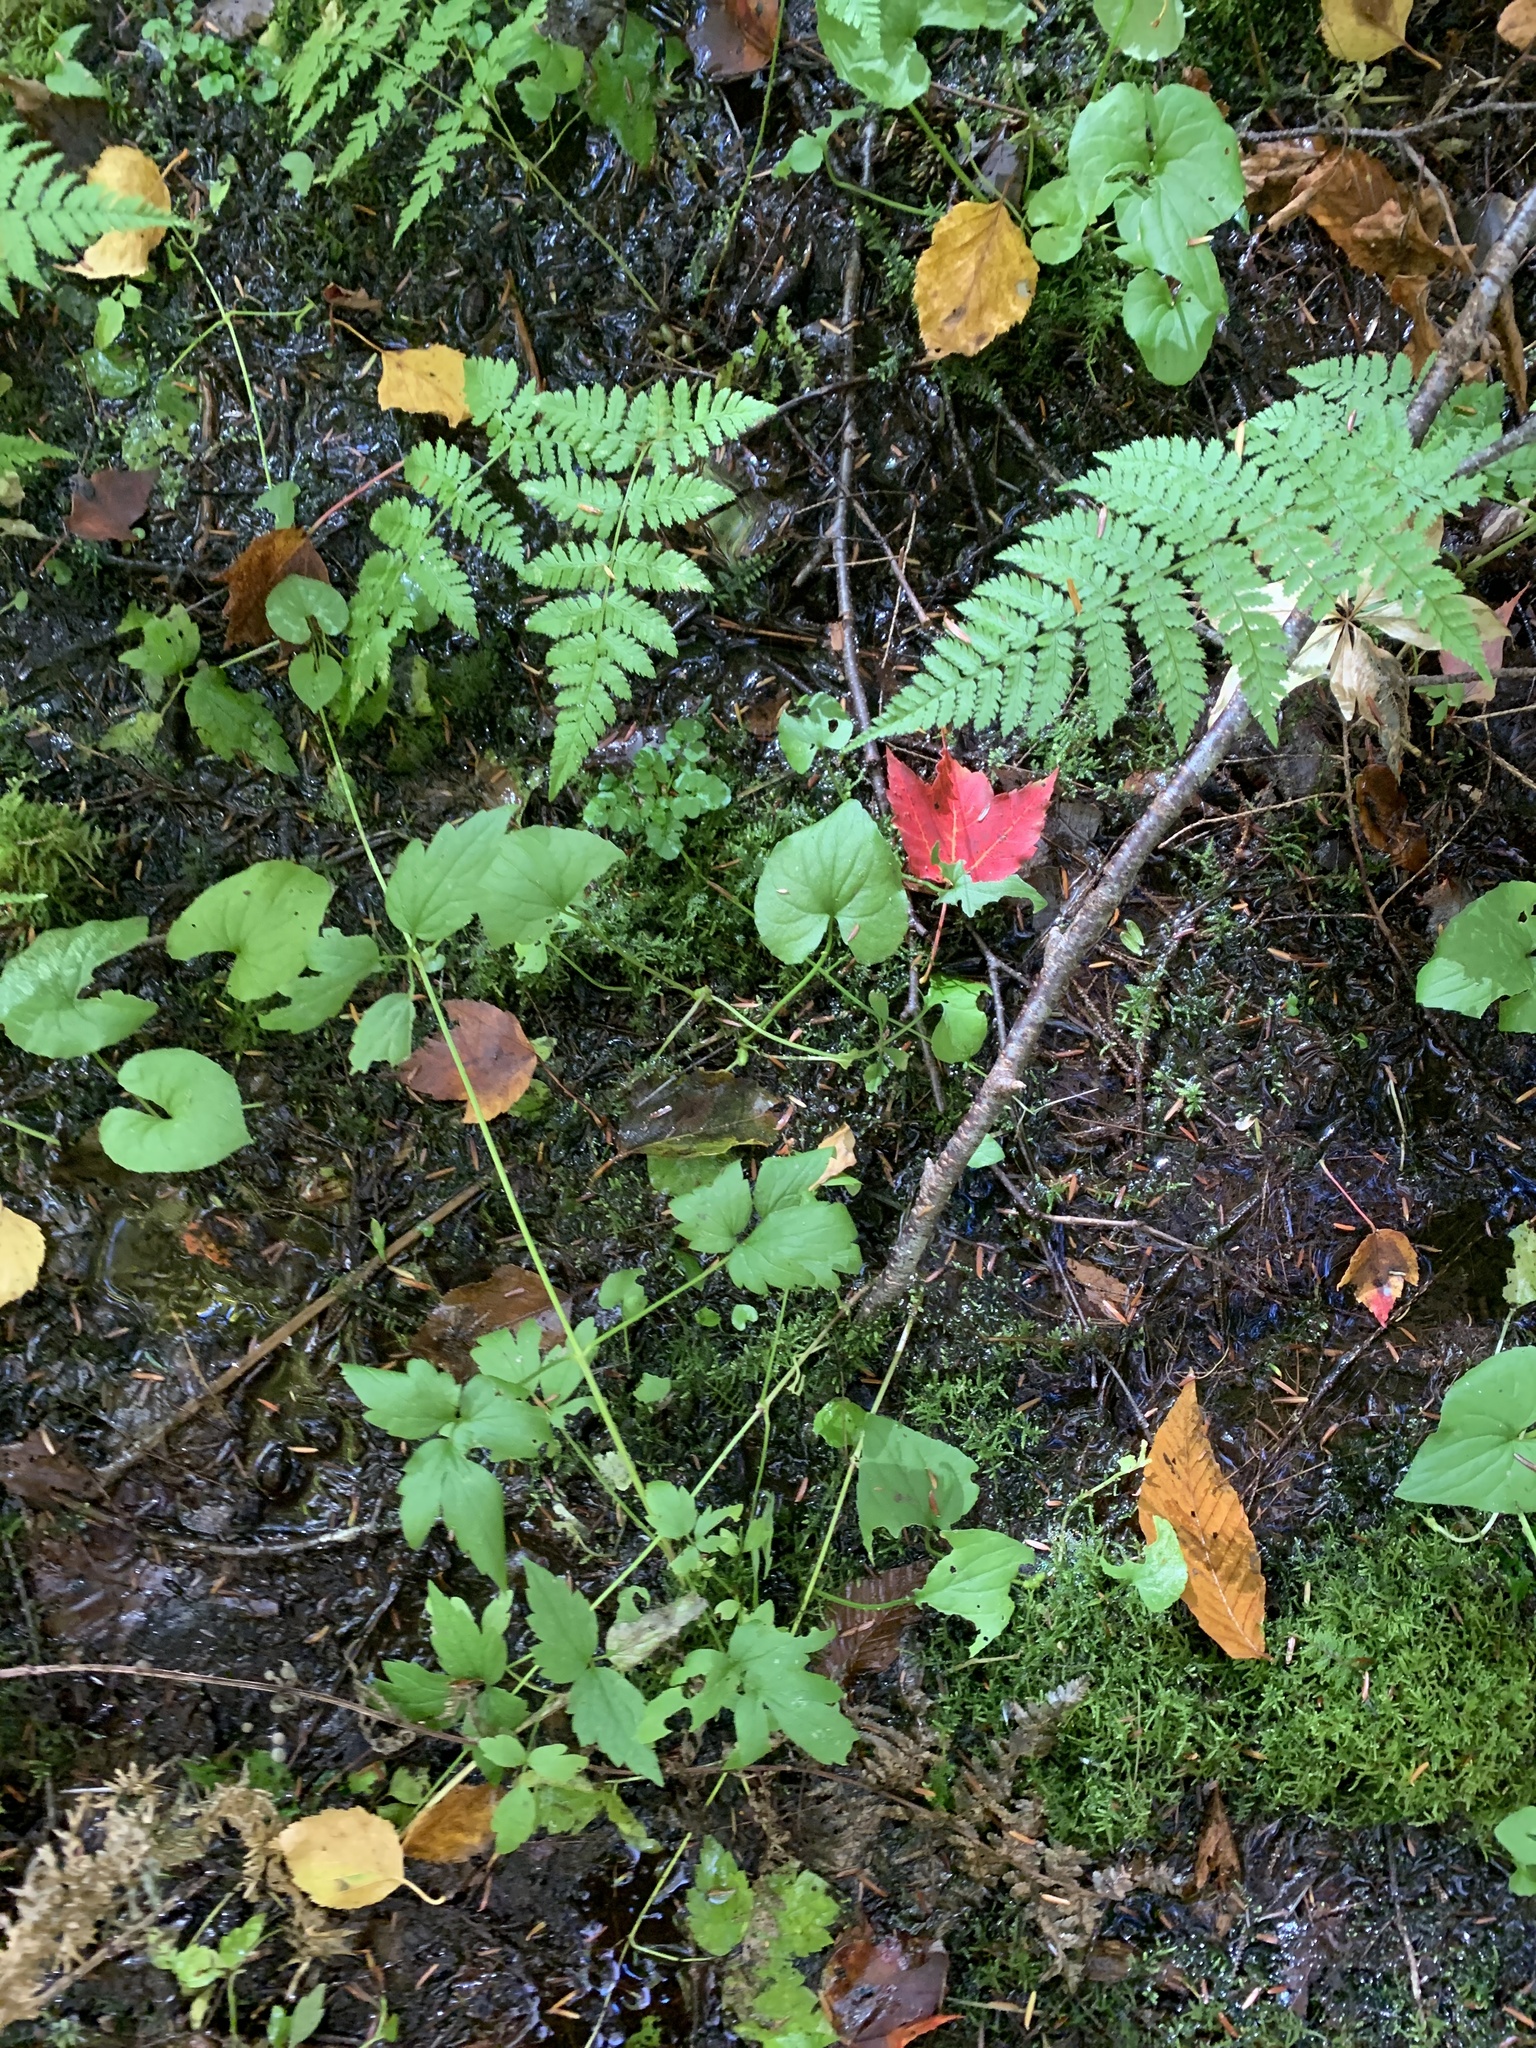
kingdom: Plantae
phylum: Tracheophyta
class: Magnoliopsida
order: Ranunculales
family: Ranunculaceae
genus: Clematis
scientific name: Clematis virginiana
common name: Virgin's-bower
